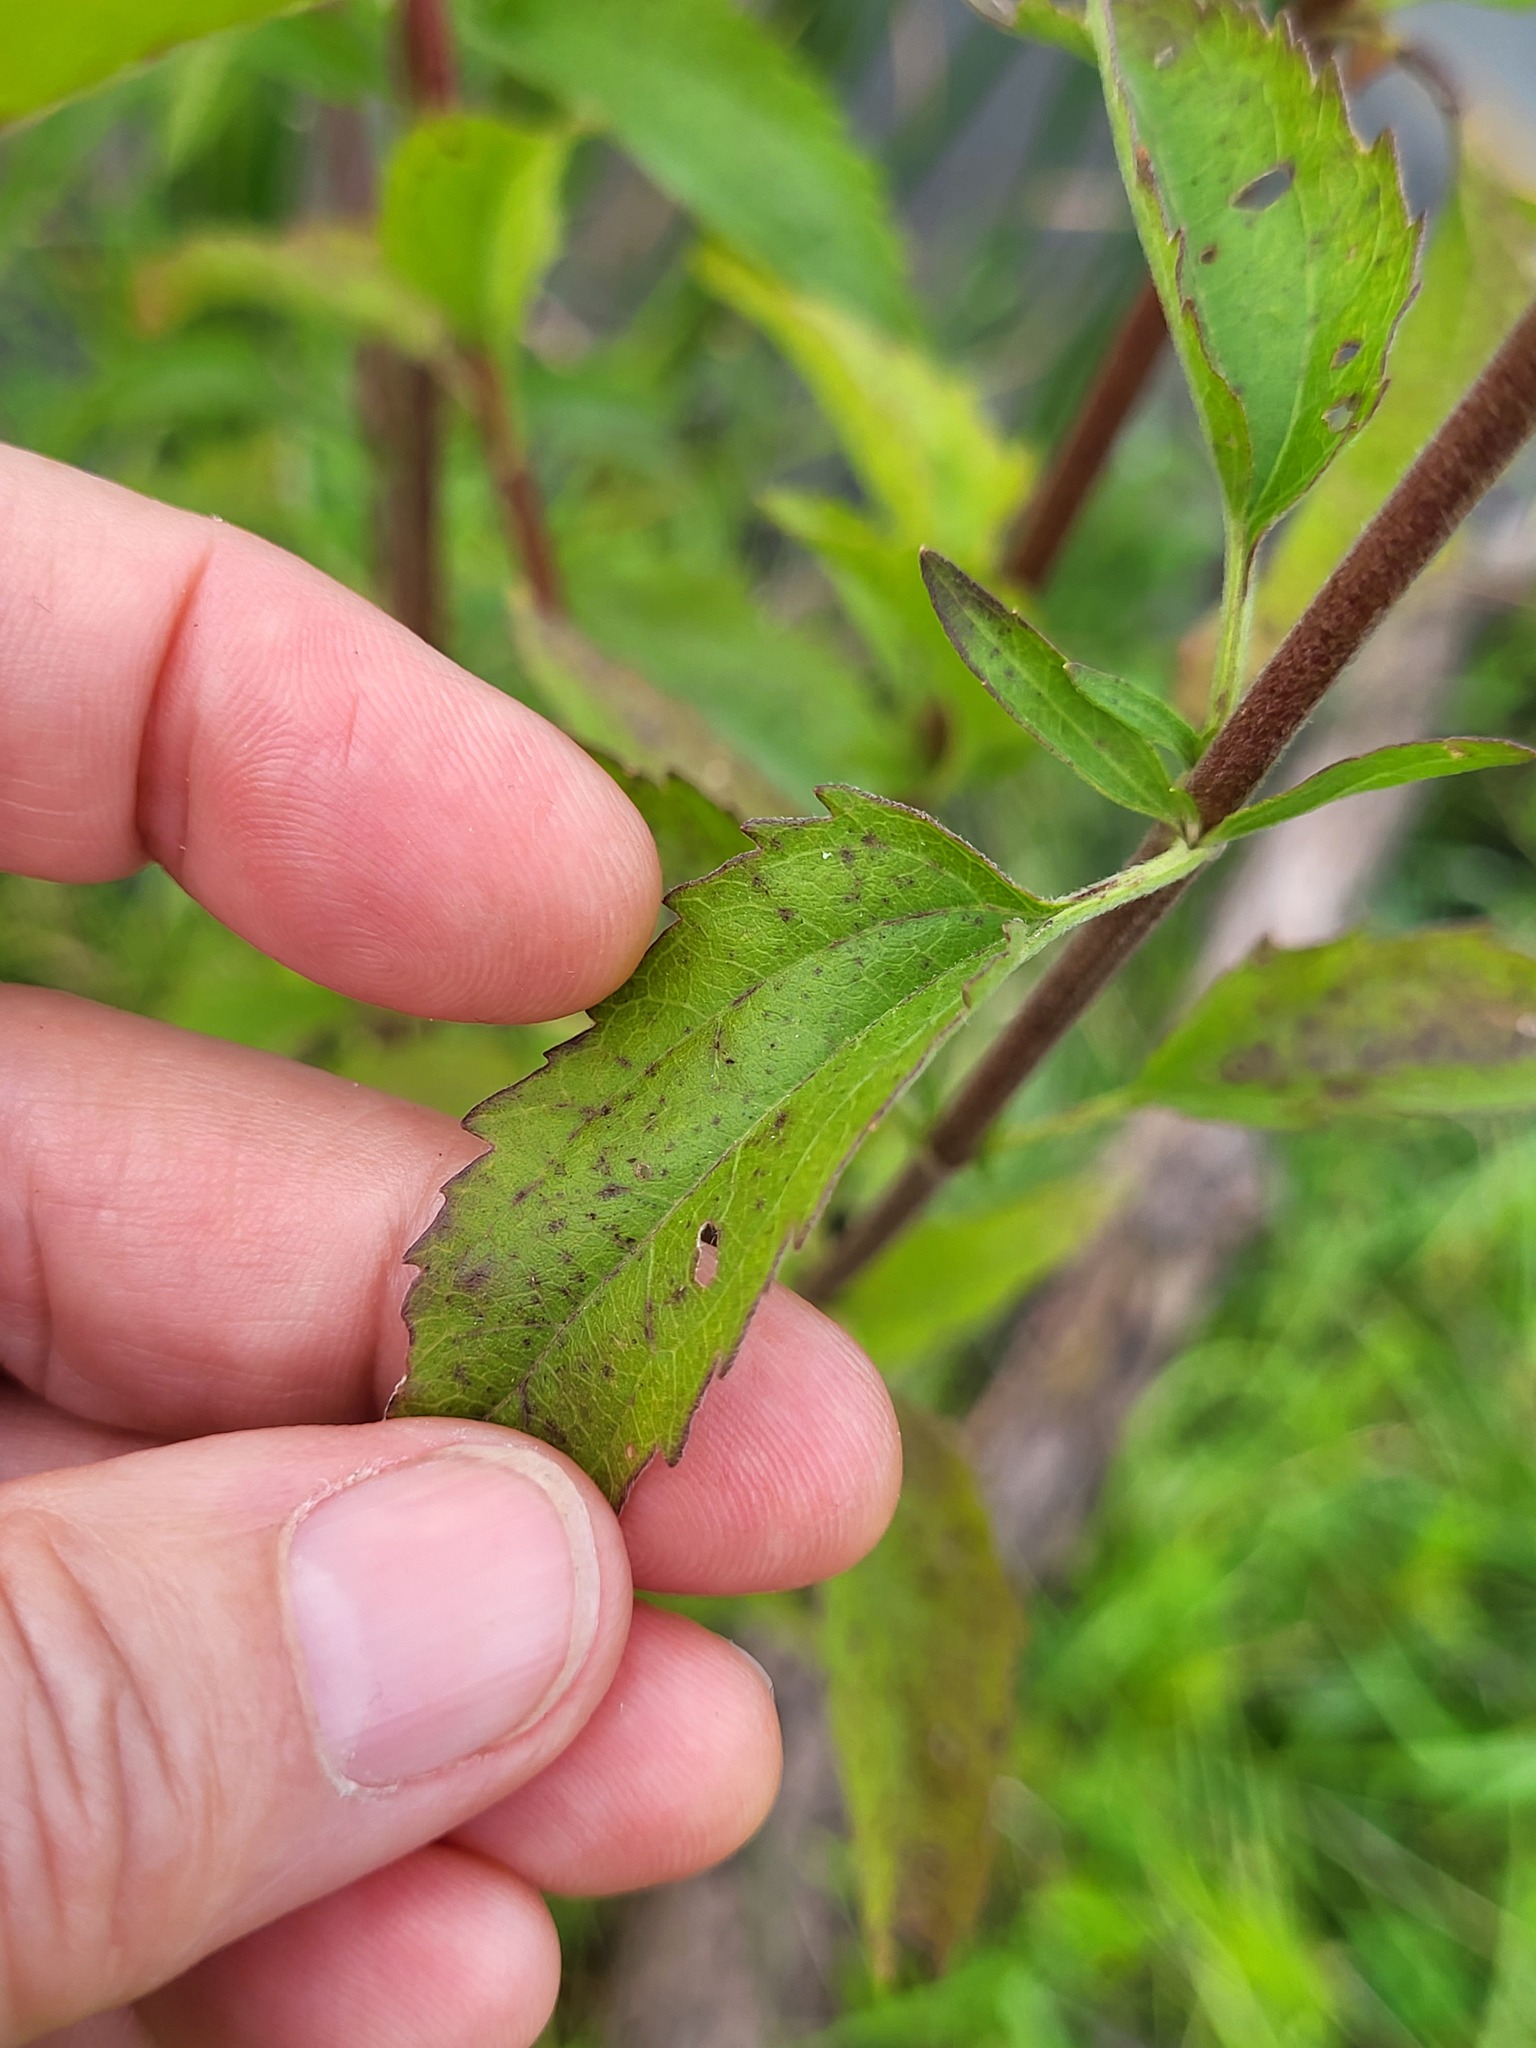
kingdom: Plantae
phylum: Tracheophyta
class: Magnoliopsida
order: Asterales
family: Asteraceae
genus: Eupatorium
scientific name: Eupatorium serotinum
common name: Late boneset
